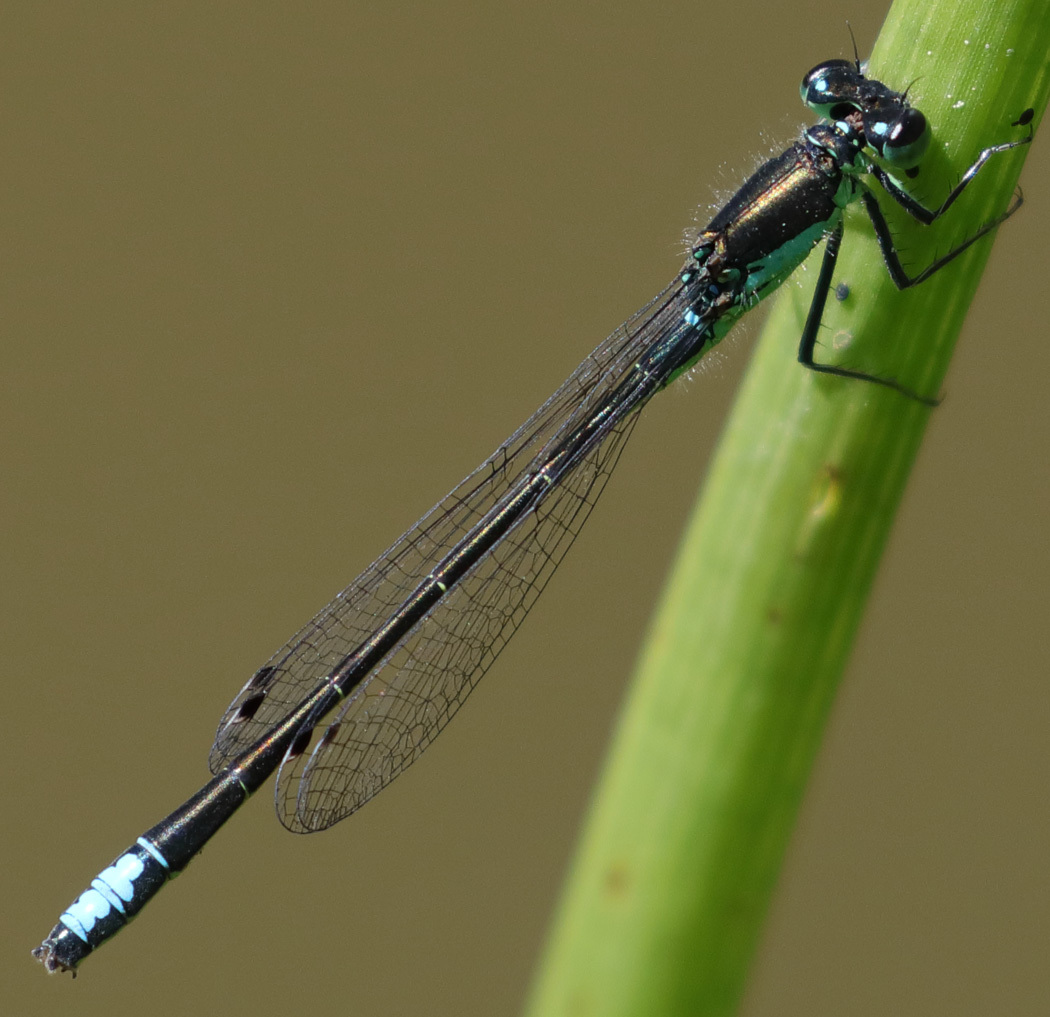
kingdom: Animalia
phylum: Arthropoda
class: Insecta
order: Odonata
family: Coenagrionidae
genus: Ischnura
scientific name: Ischnura denticollis
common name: Black-fronted forktail
